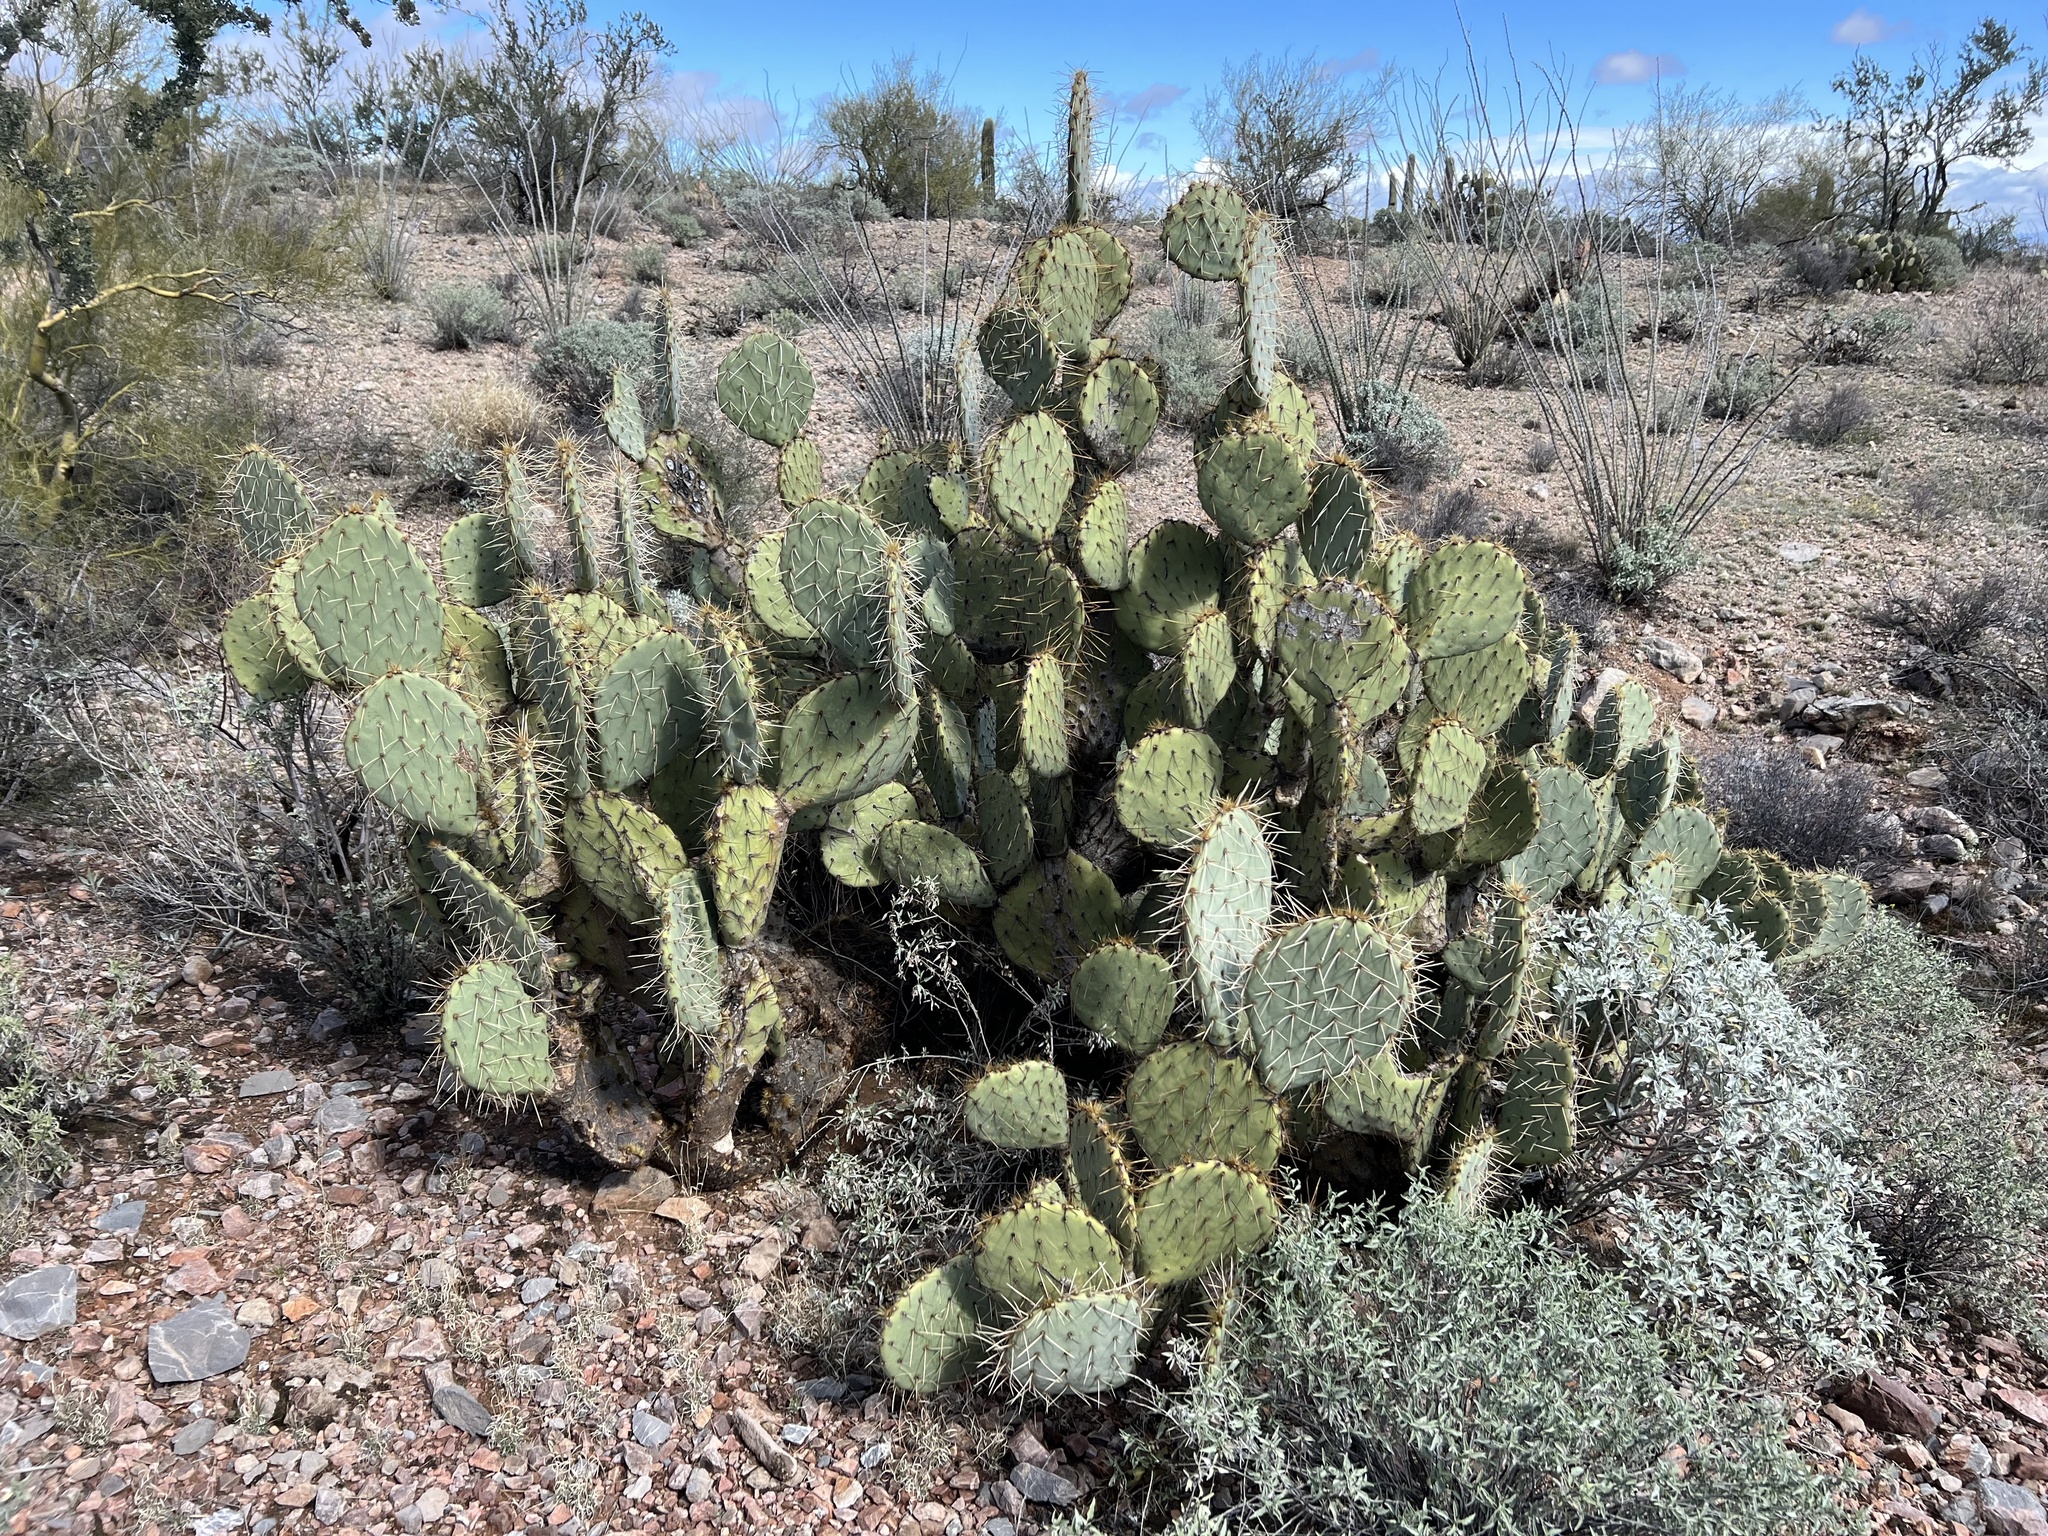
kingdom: Plantae
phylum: Tracheophyta
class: Magnoliopsida
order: Caryophyllales
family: Cactaceae
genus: Opuntia
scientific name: Opuntia engelmannii
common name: Cactus-apple
